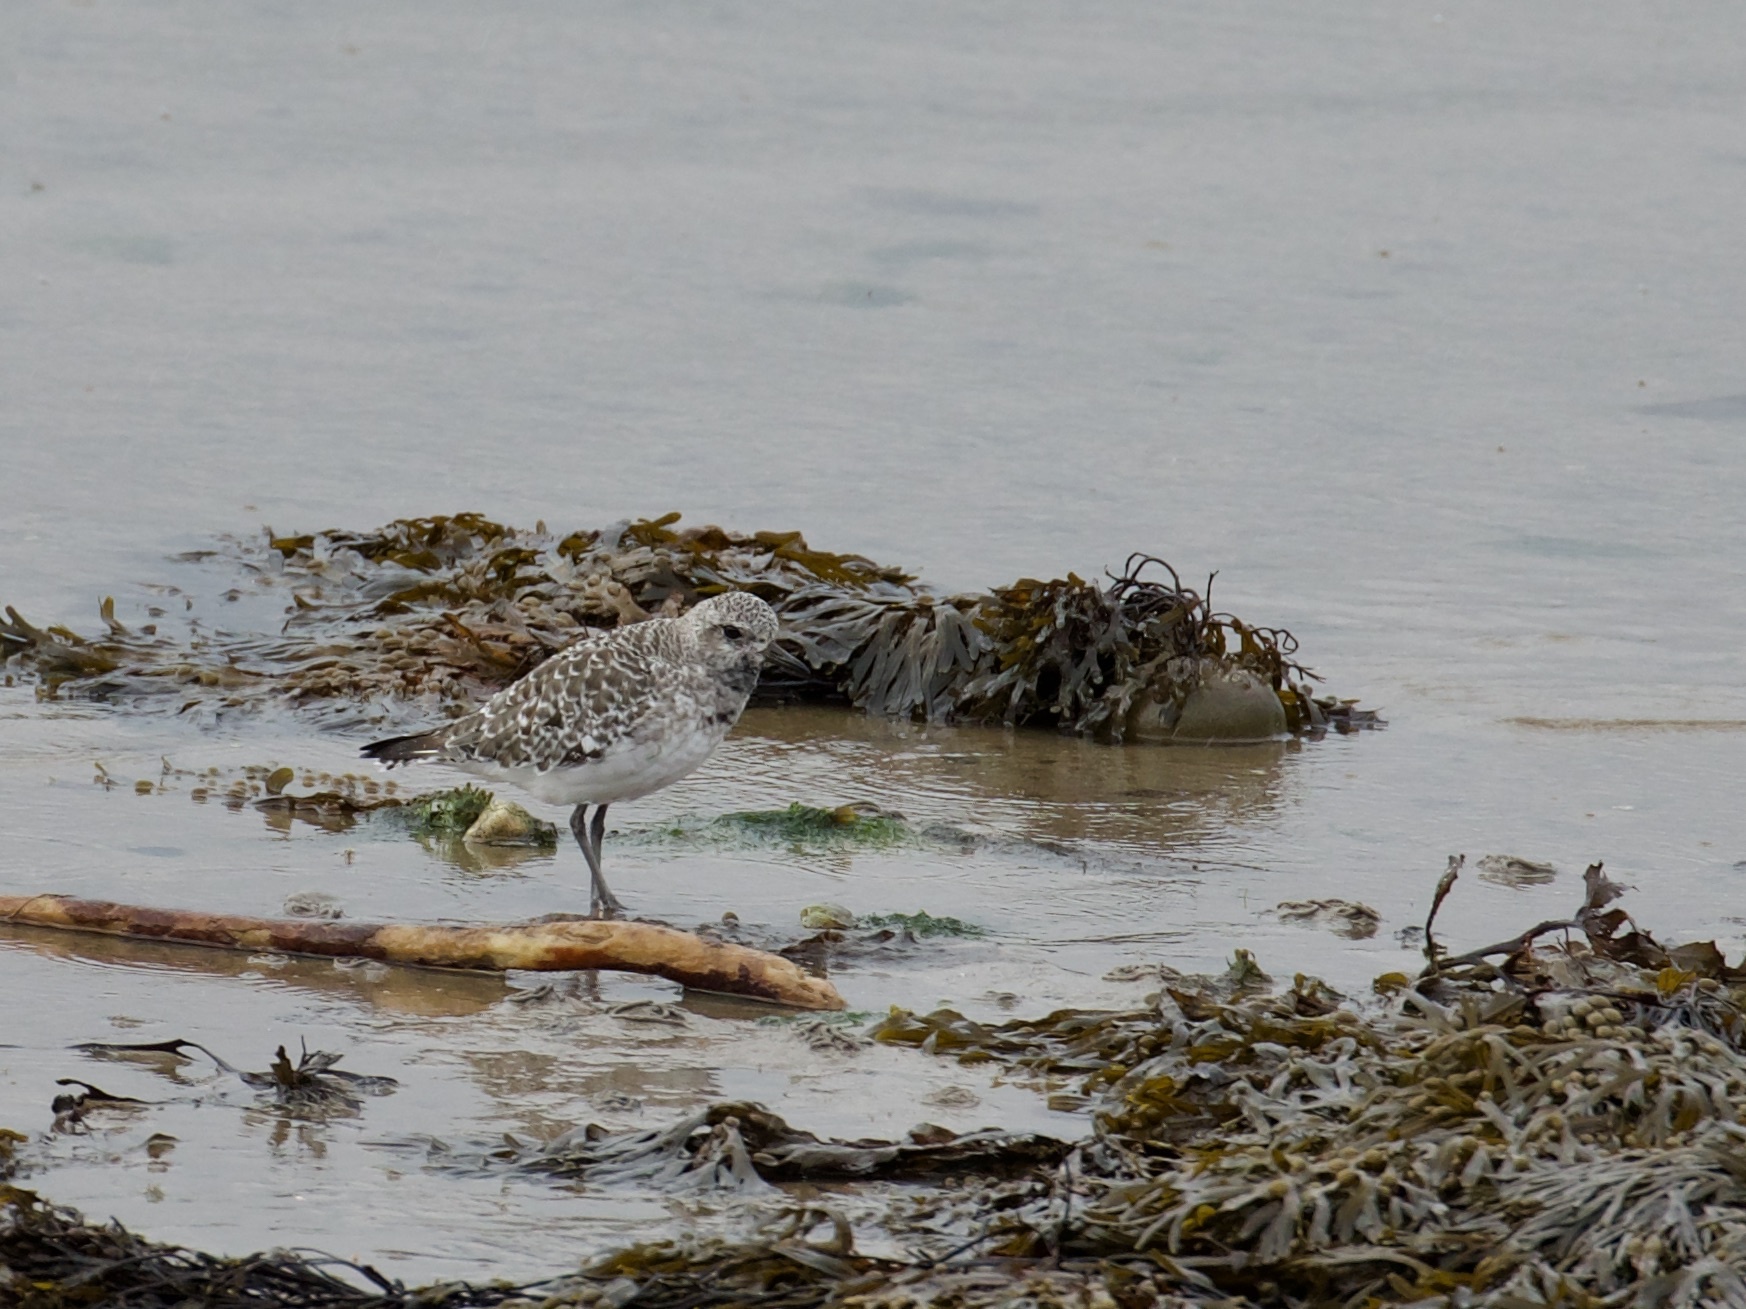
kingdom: Animalia
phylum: Chordata
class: Aves
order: Charadriiformes
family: Charadriidae
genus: Pluvialis
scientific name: Pluvialis squatarola
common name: Grey plover
